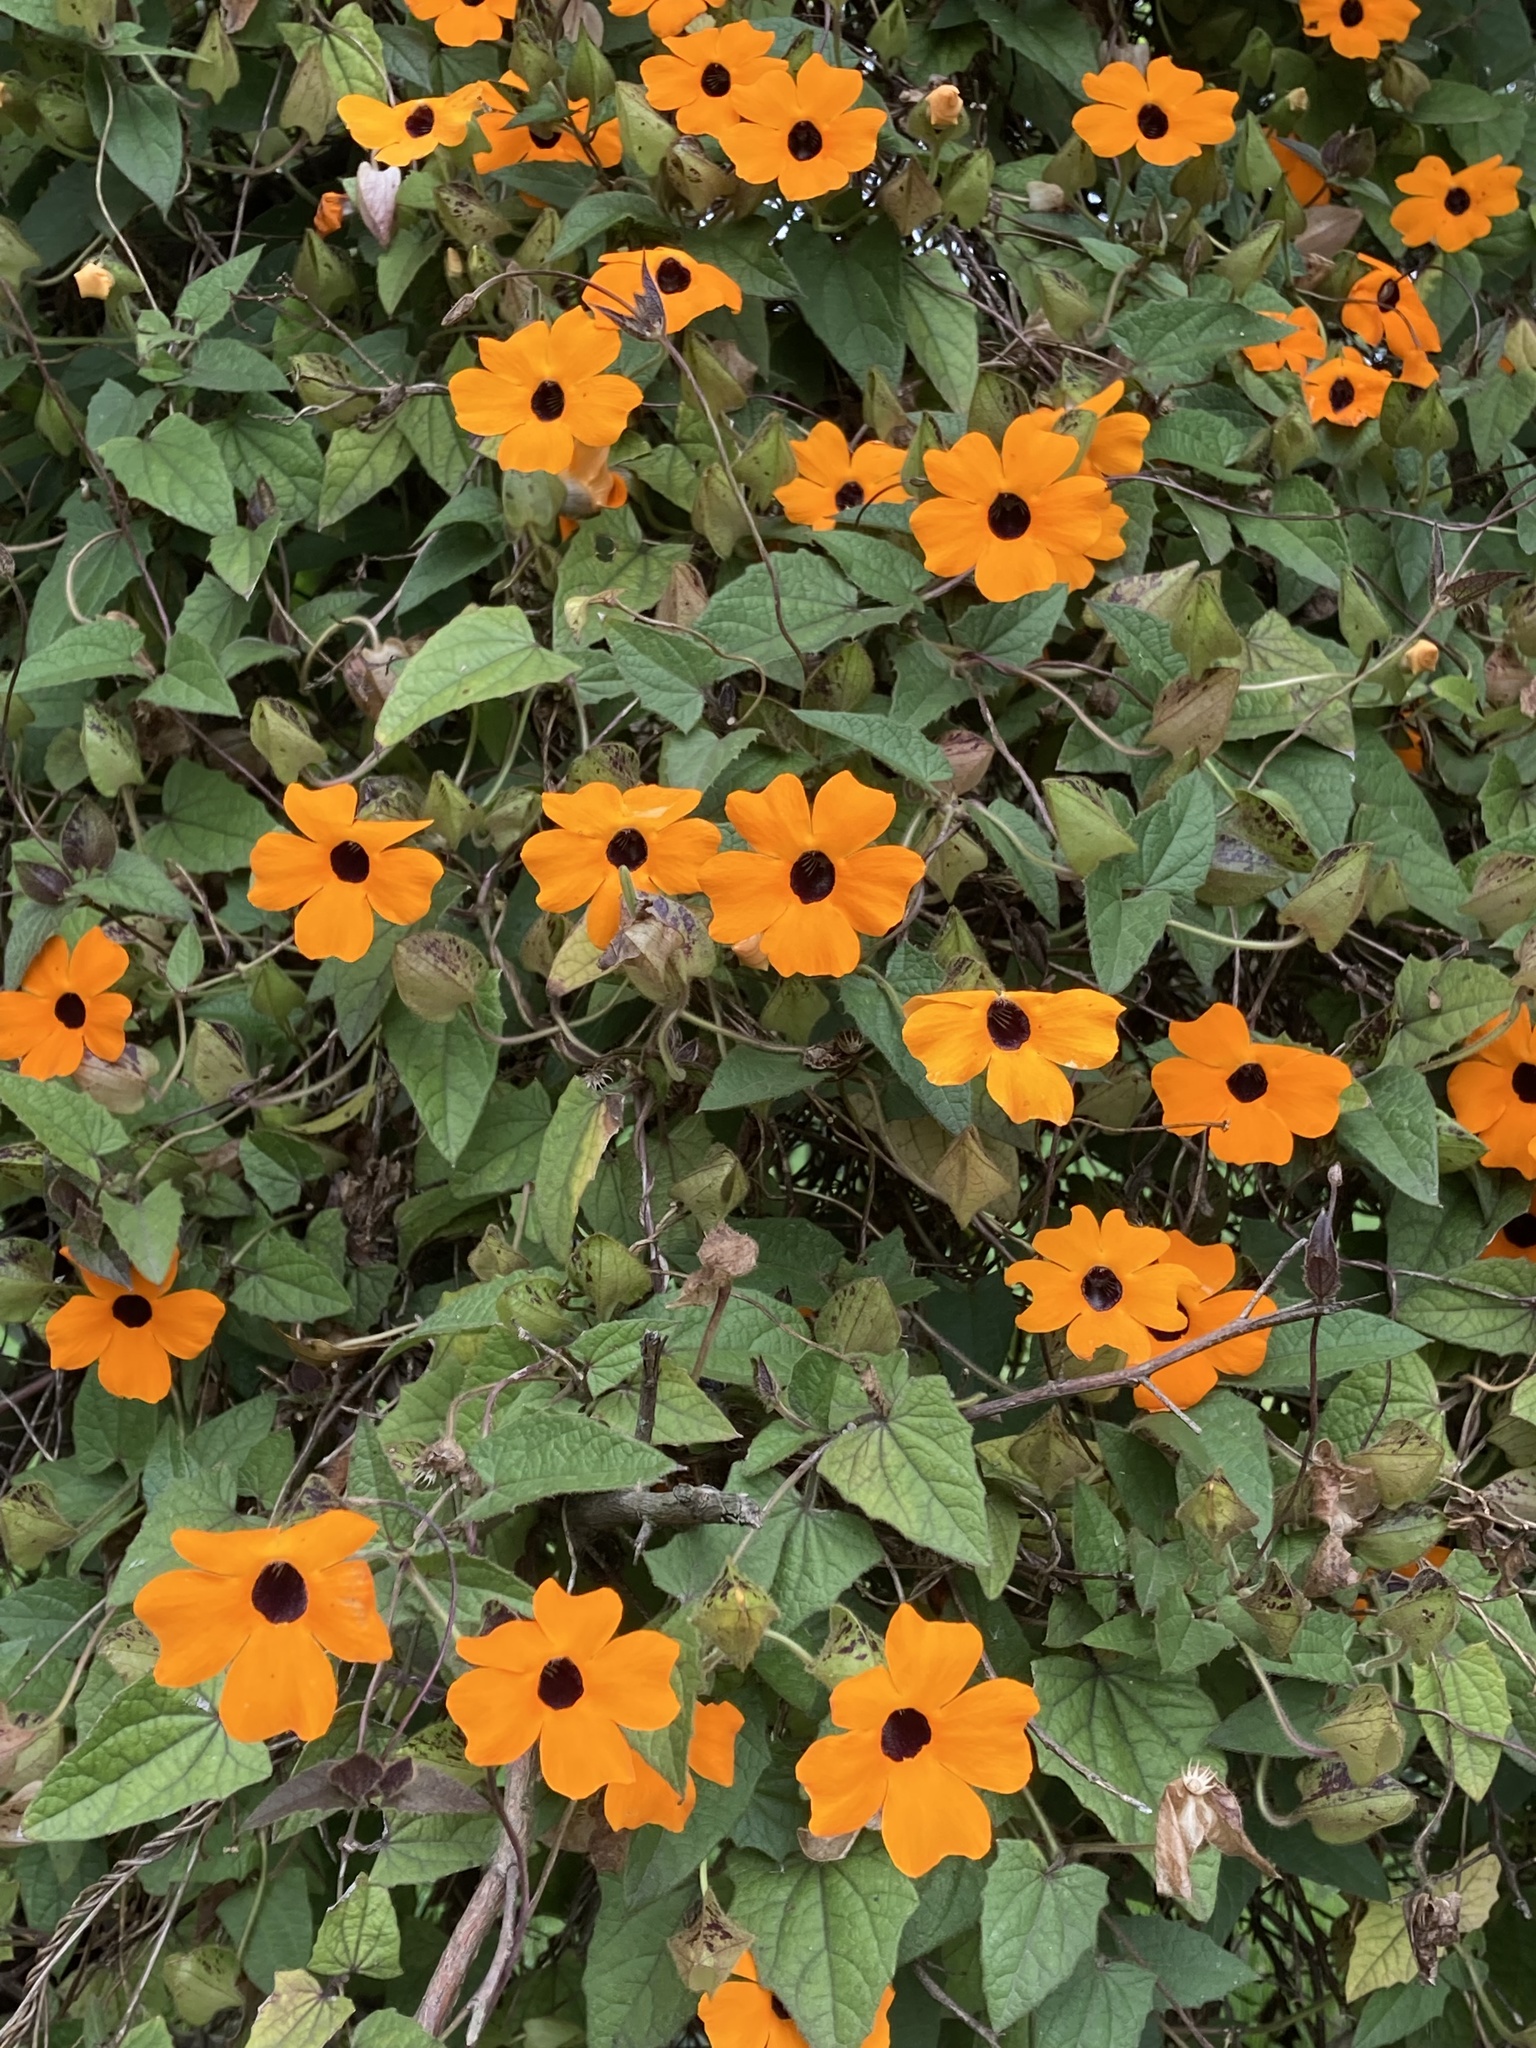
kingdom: Plantae
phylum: Tracheophyta
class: Magnoliopsida
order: Lamiales
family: Acanthaceae
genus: Thunbergia
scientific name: Thunbergia alata
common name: Blackeyed susan vine
